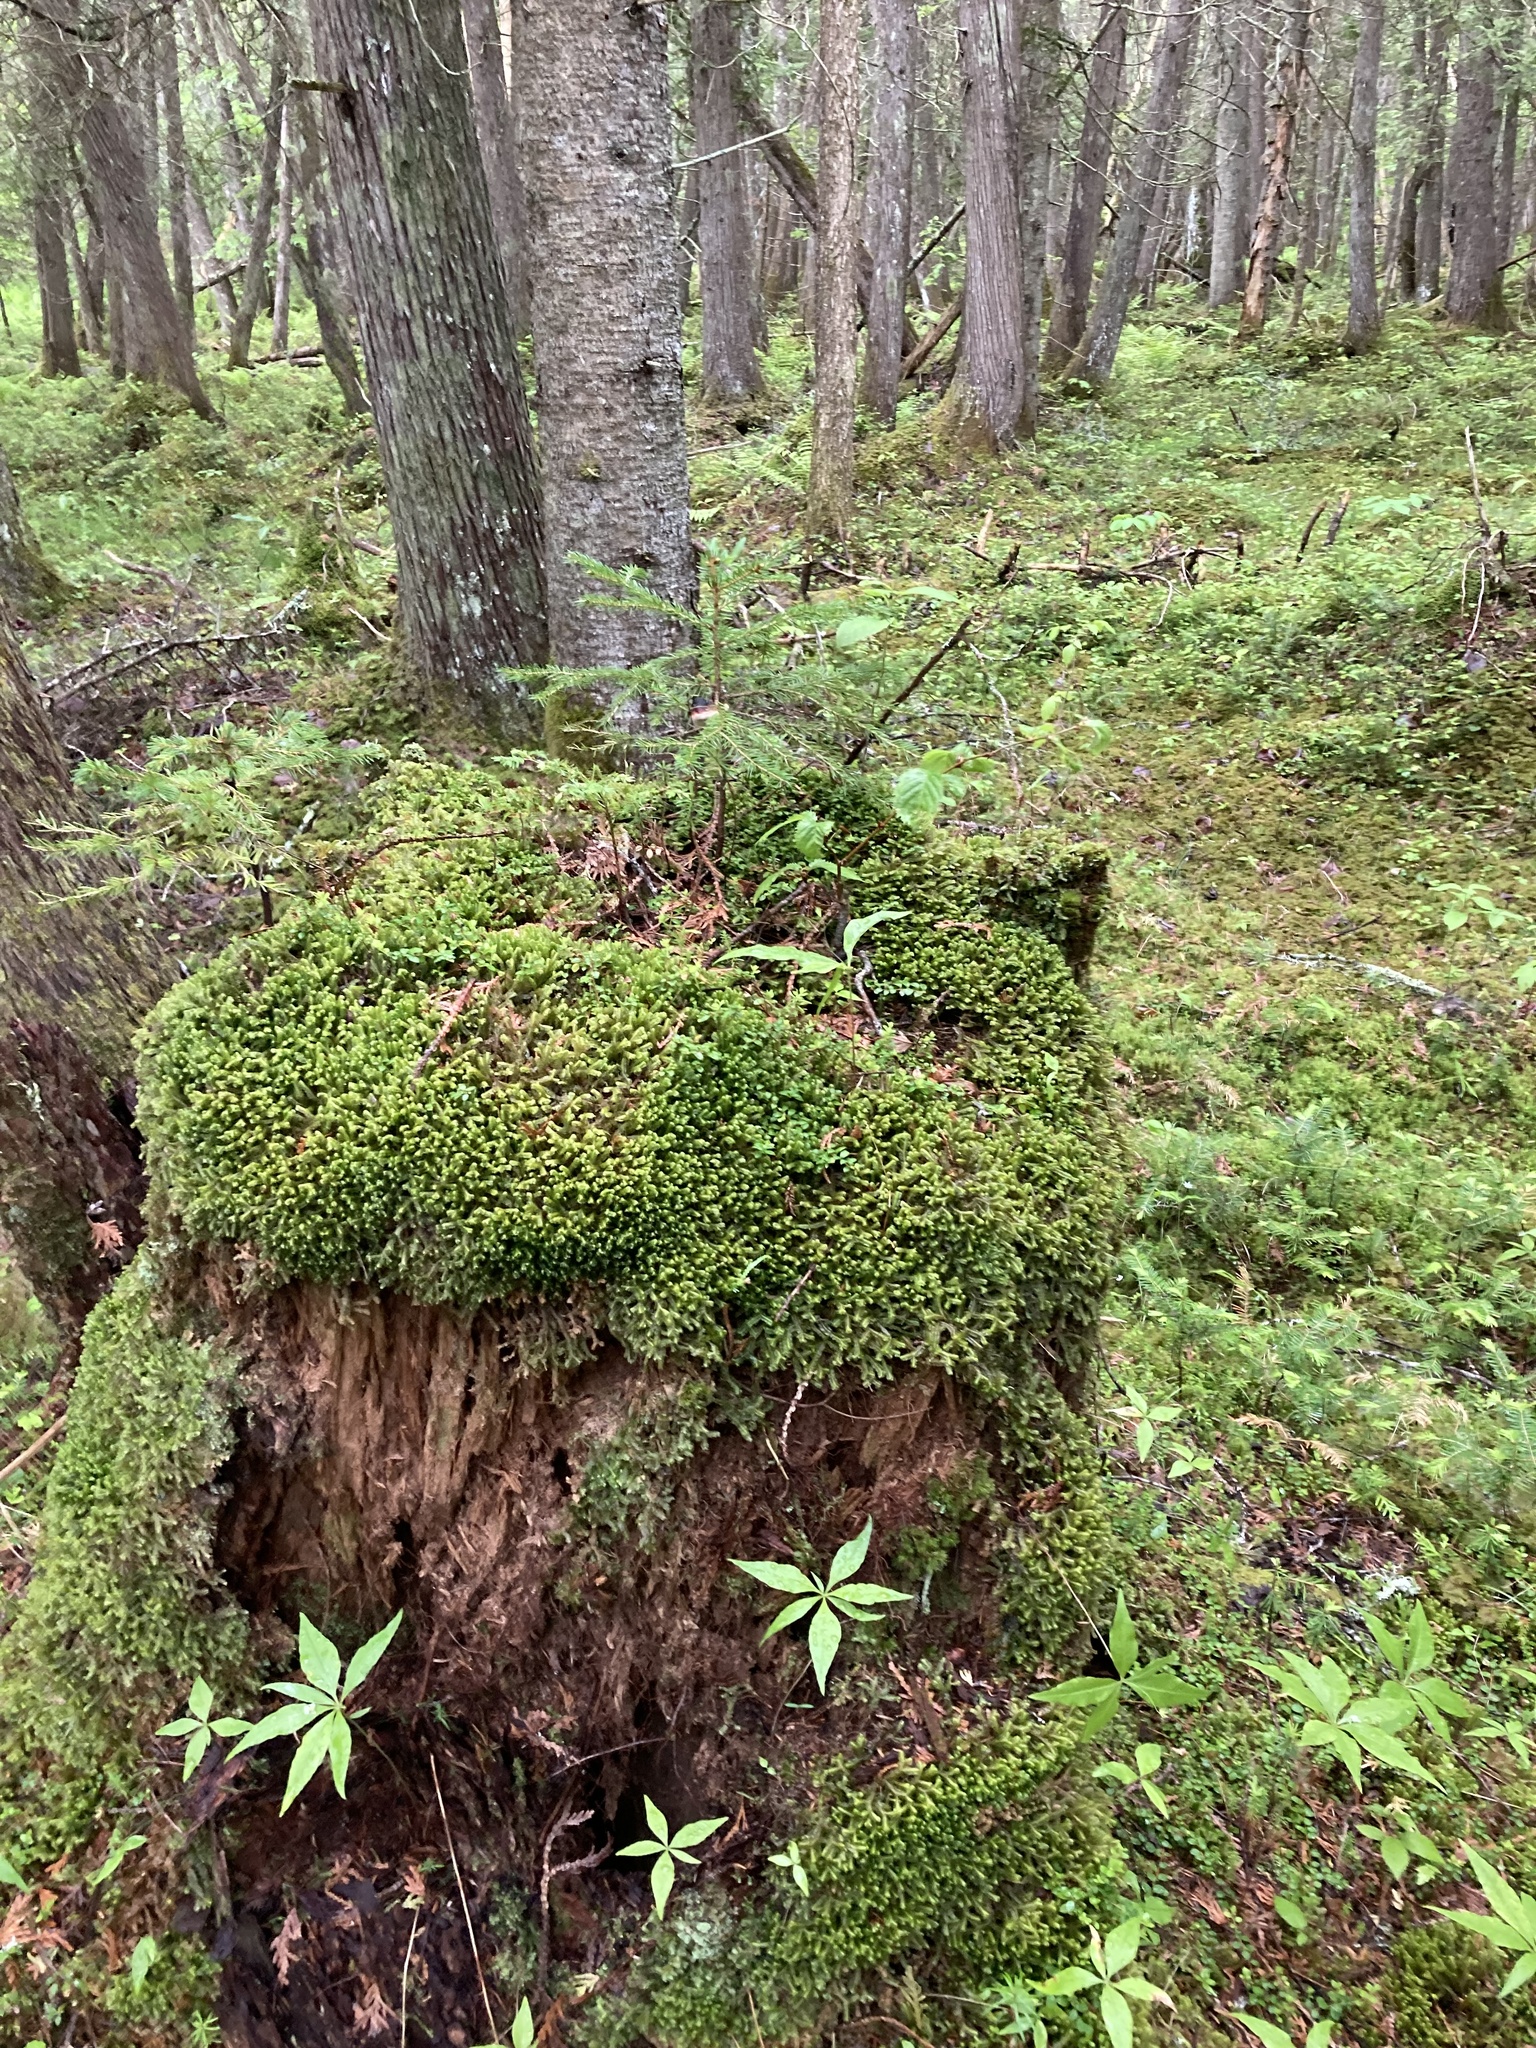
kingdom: Plantae
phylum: Marchantiophyta
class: Jungermanniopsida
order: Jungermanniales
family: Lepidoziaceae
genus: Bazzania
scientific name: Bazzania trilobata
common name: Three-lobed whipwort
